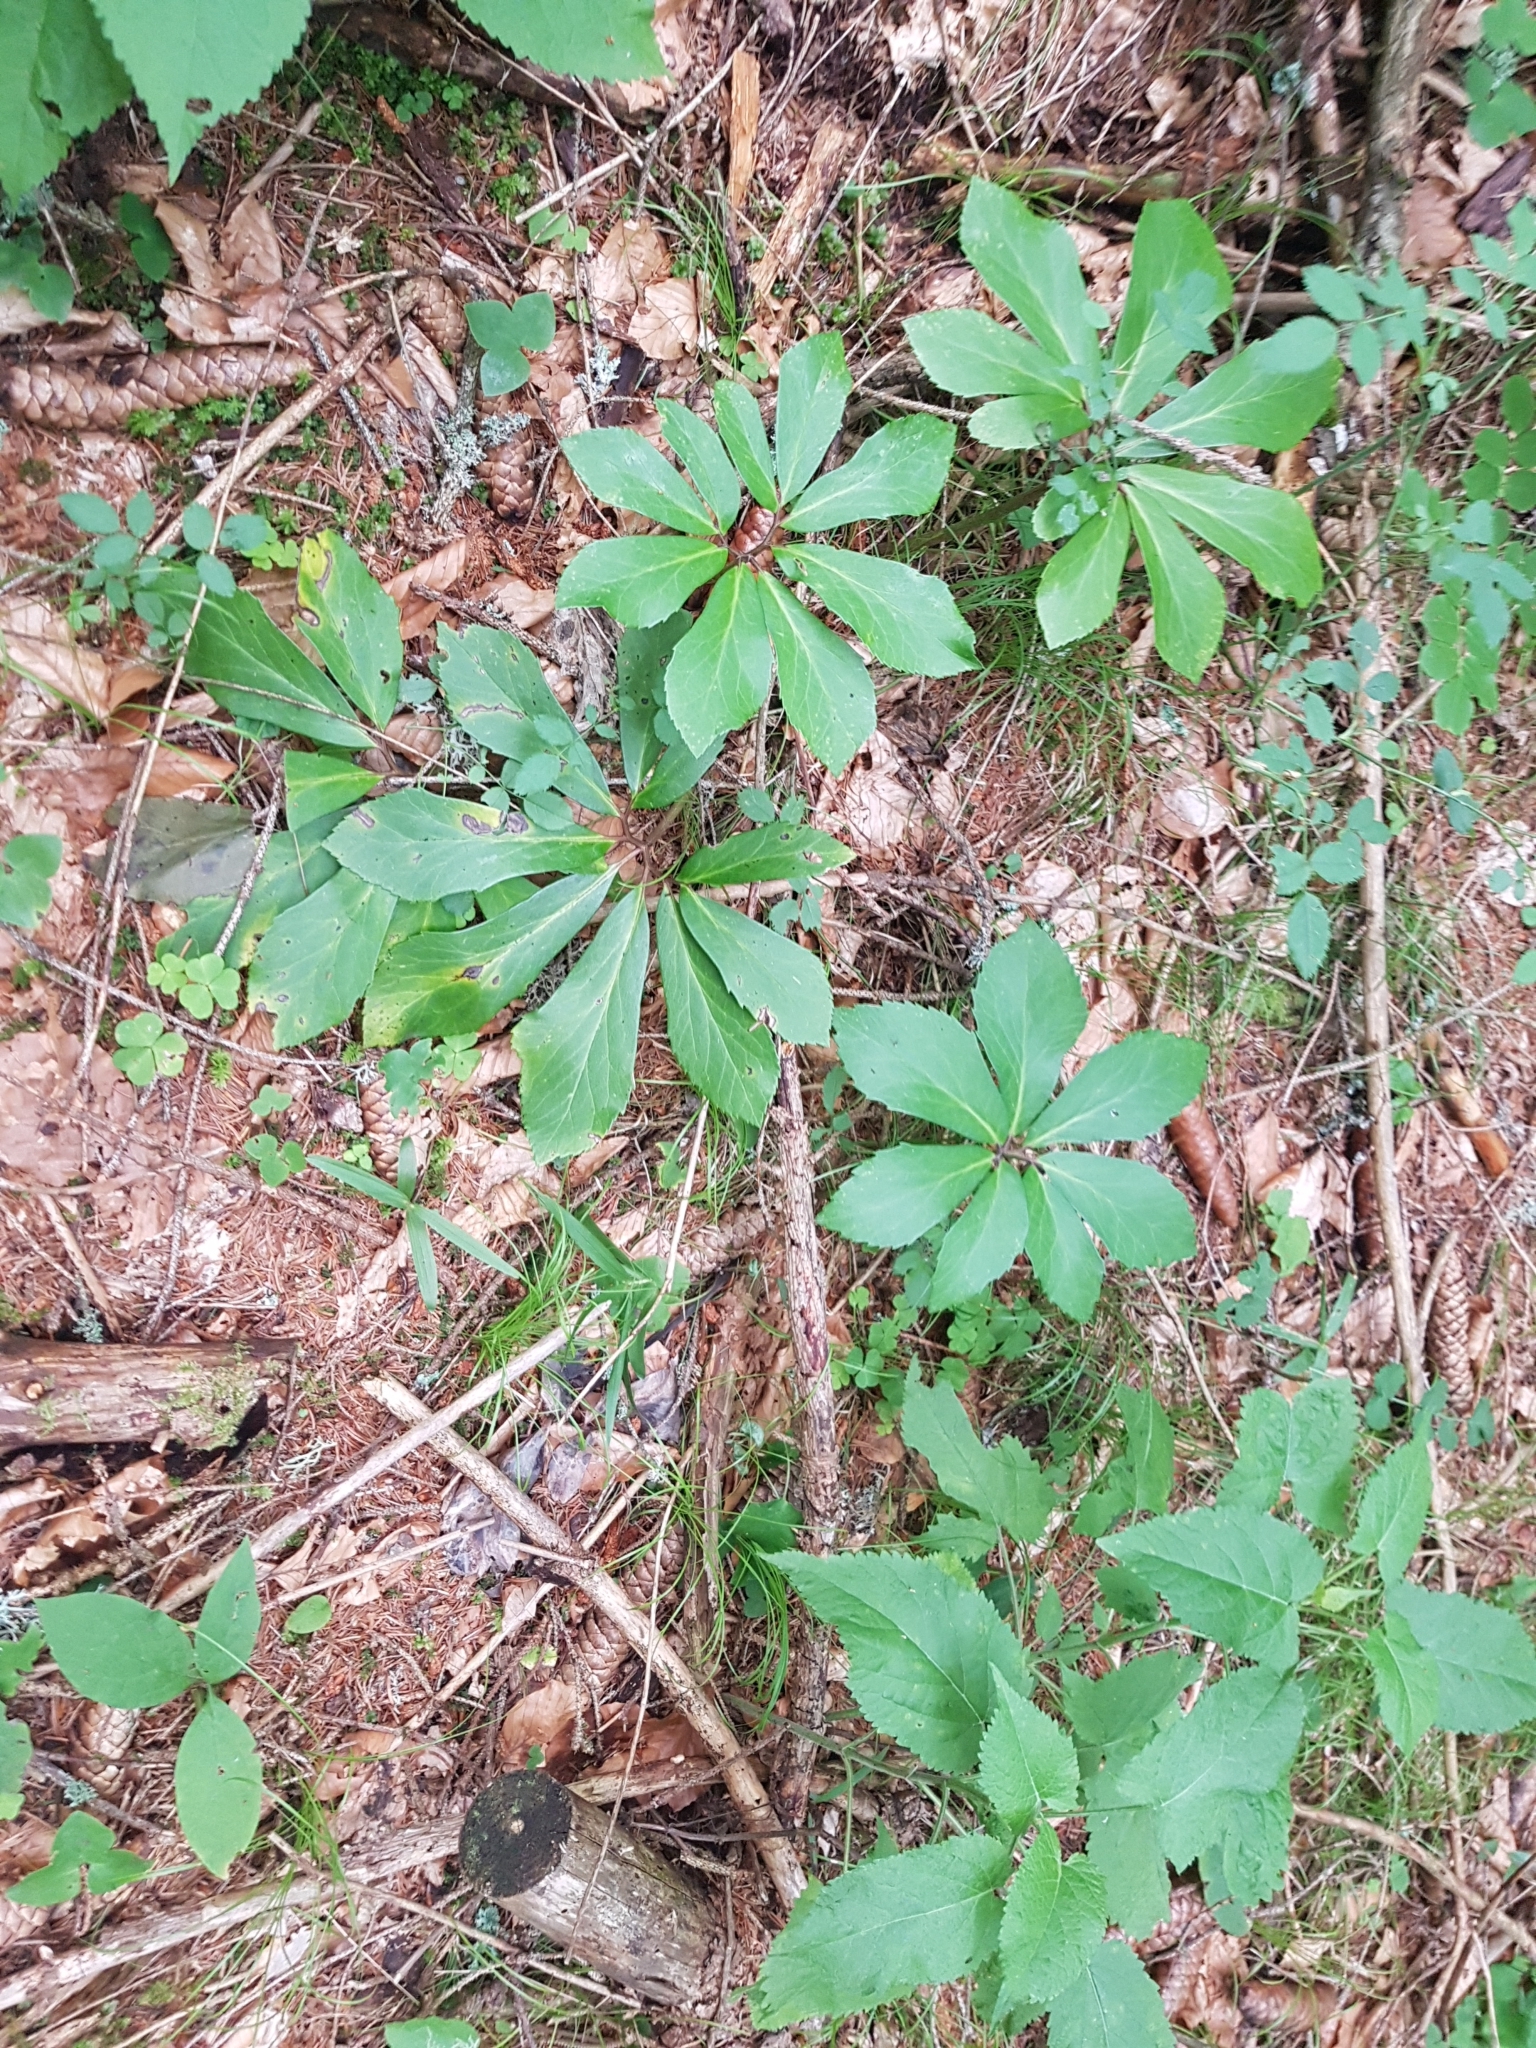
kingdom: Plantae
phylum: Tracheophyta
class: Magnoliopsida
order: Ranunculales
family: Ranunculaceae
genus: Helleborus
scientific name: Helleborus niger
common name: Black hellebore
